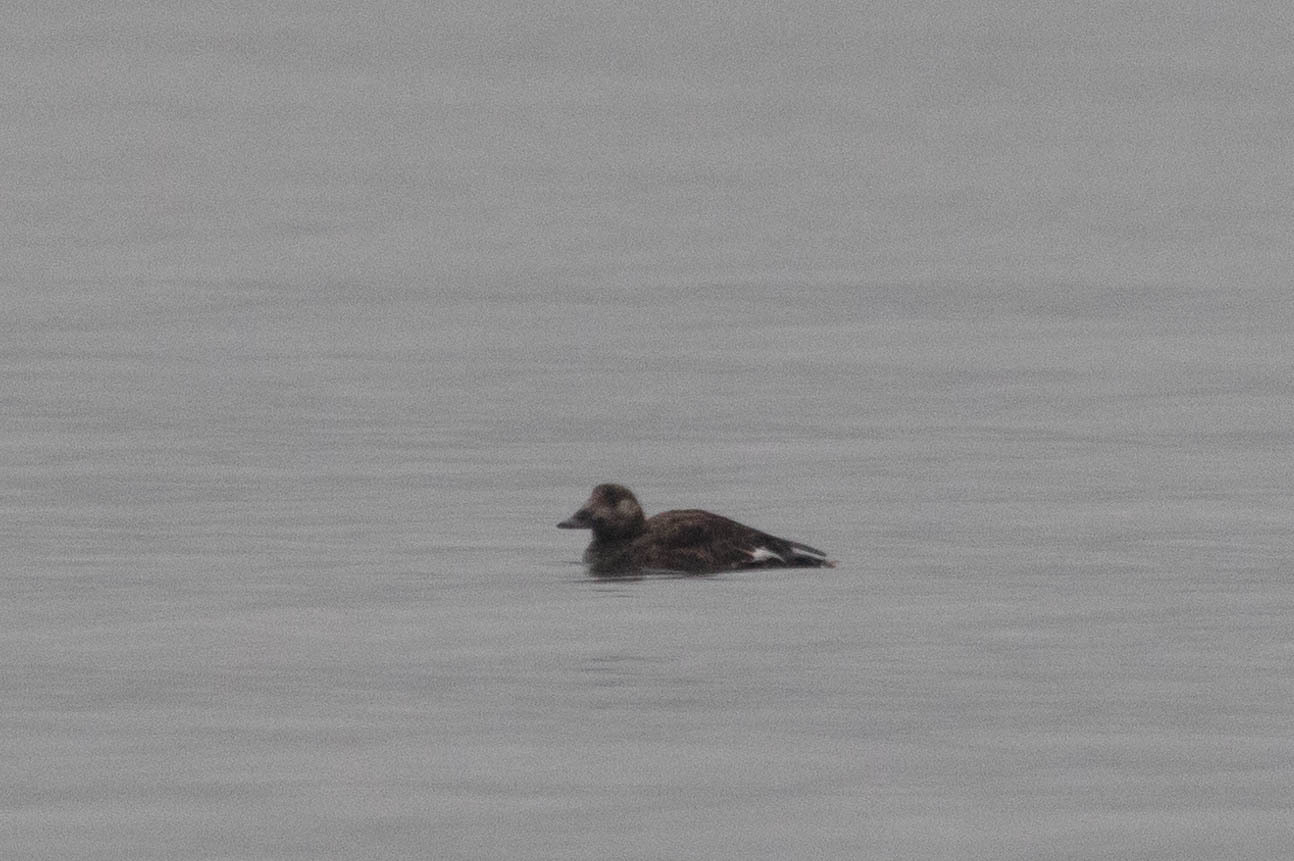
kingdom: Animalia
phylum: Chordata
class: Aves
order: Anseriformes
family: Anatidae
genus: Melanitta
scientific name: Melanitta deglandi
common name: White-winged scoter
